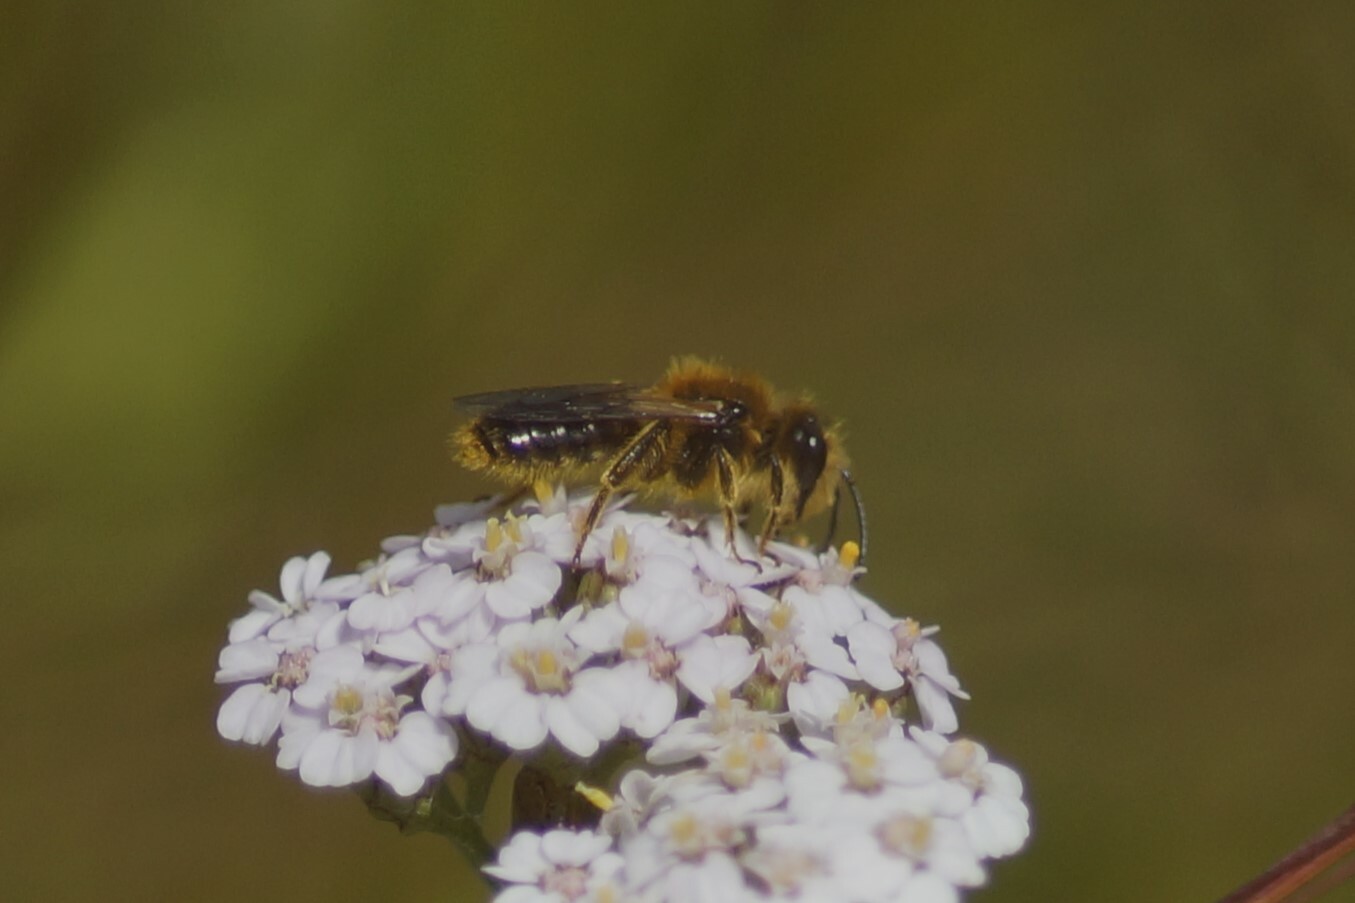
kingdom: Animalia
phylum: Arthropoda
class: Insecta
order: Hymenoptera
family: Colletidae
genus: Leioproctus
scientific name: Leioproctus fulvescens
